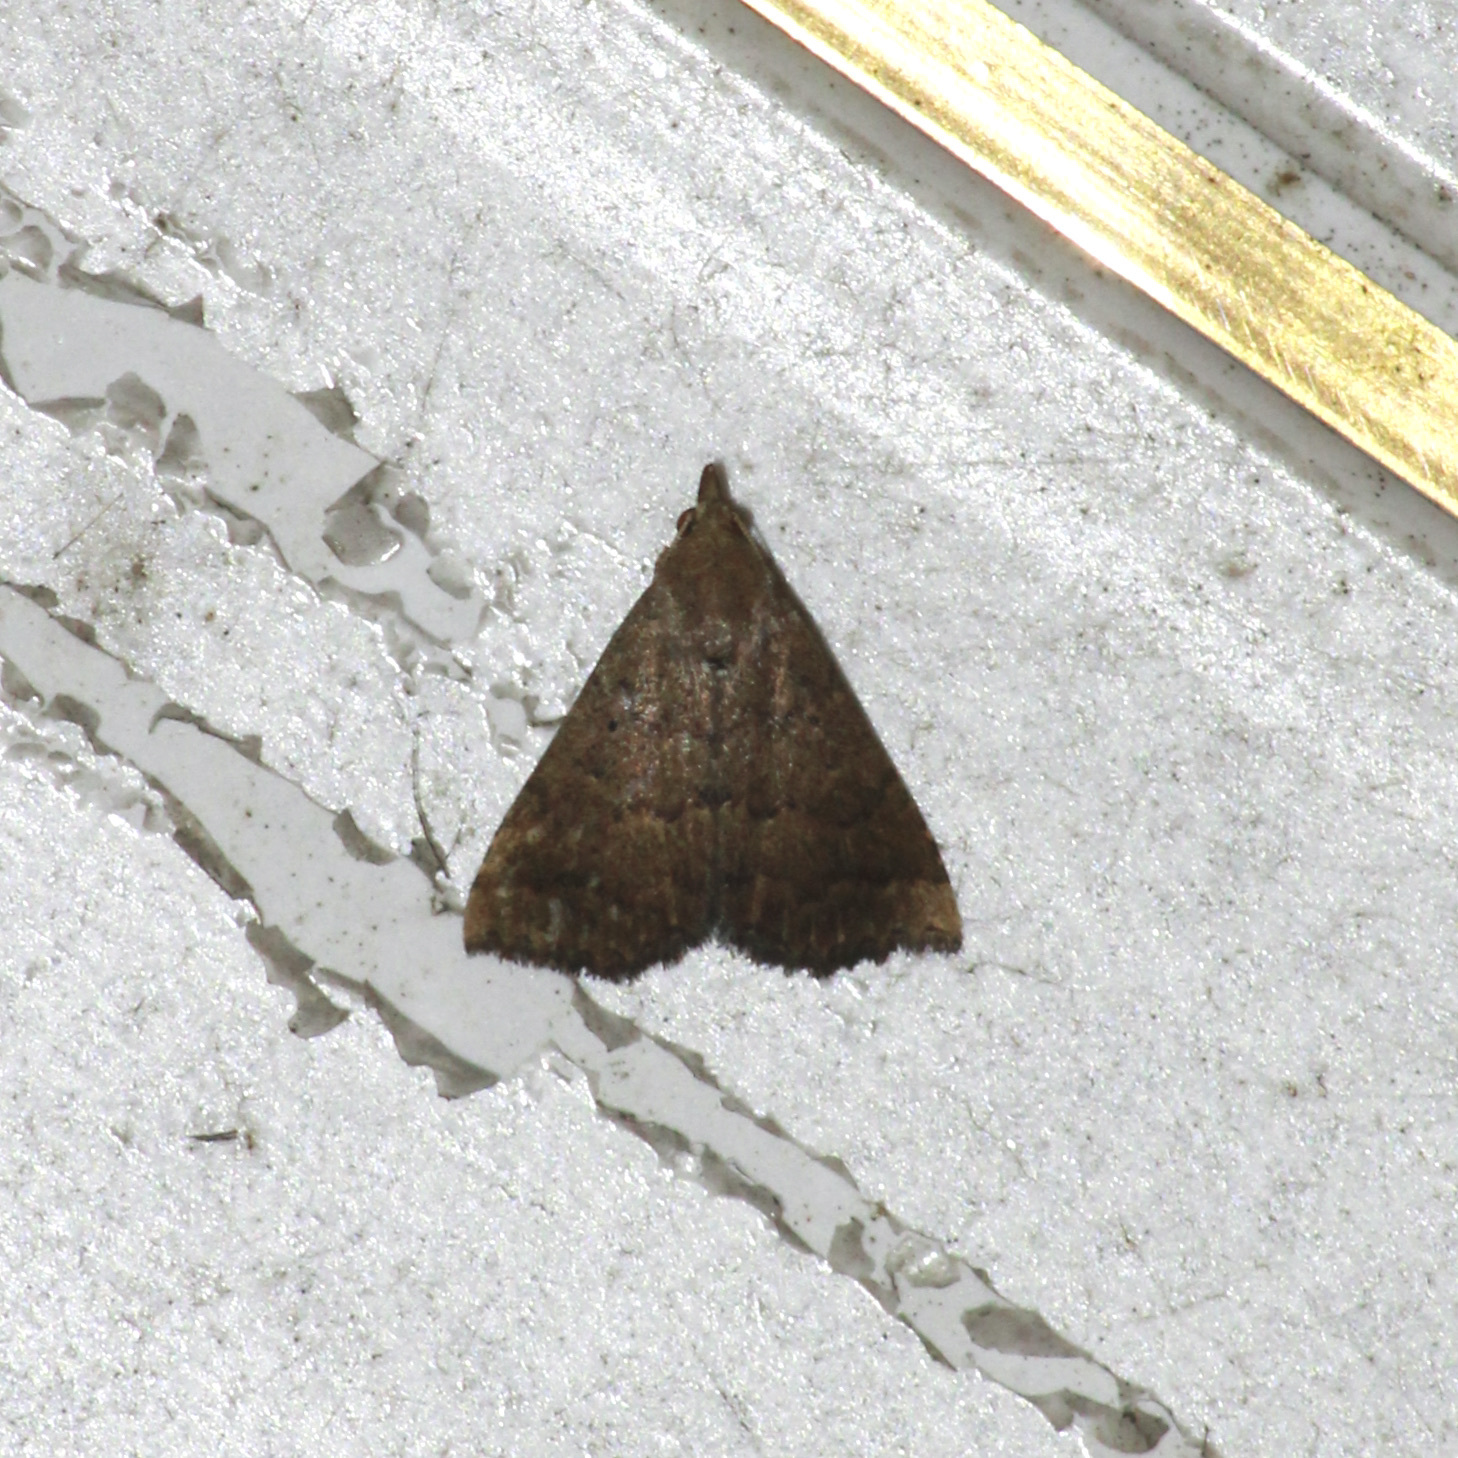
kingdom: Animalia
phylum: Arthropoda
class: Insecta
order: Lepidoptera
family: Erebidae
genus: Arugisa
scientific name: Arugisa Poena drucella
